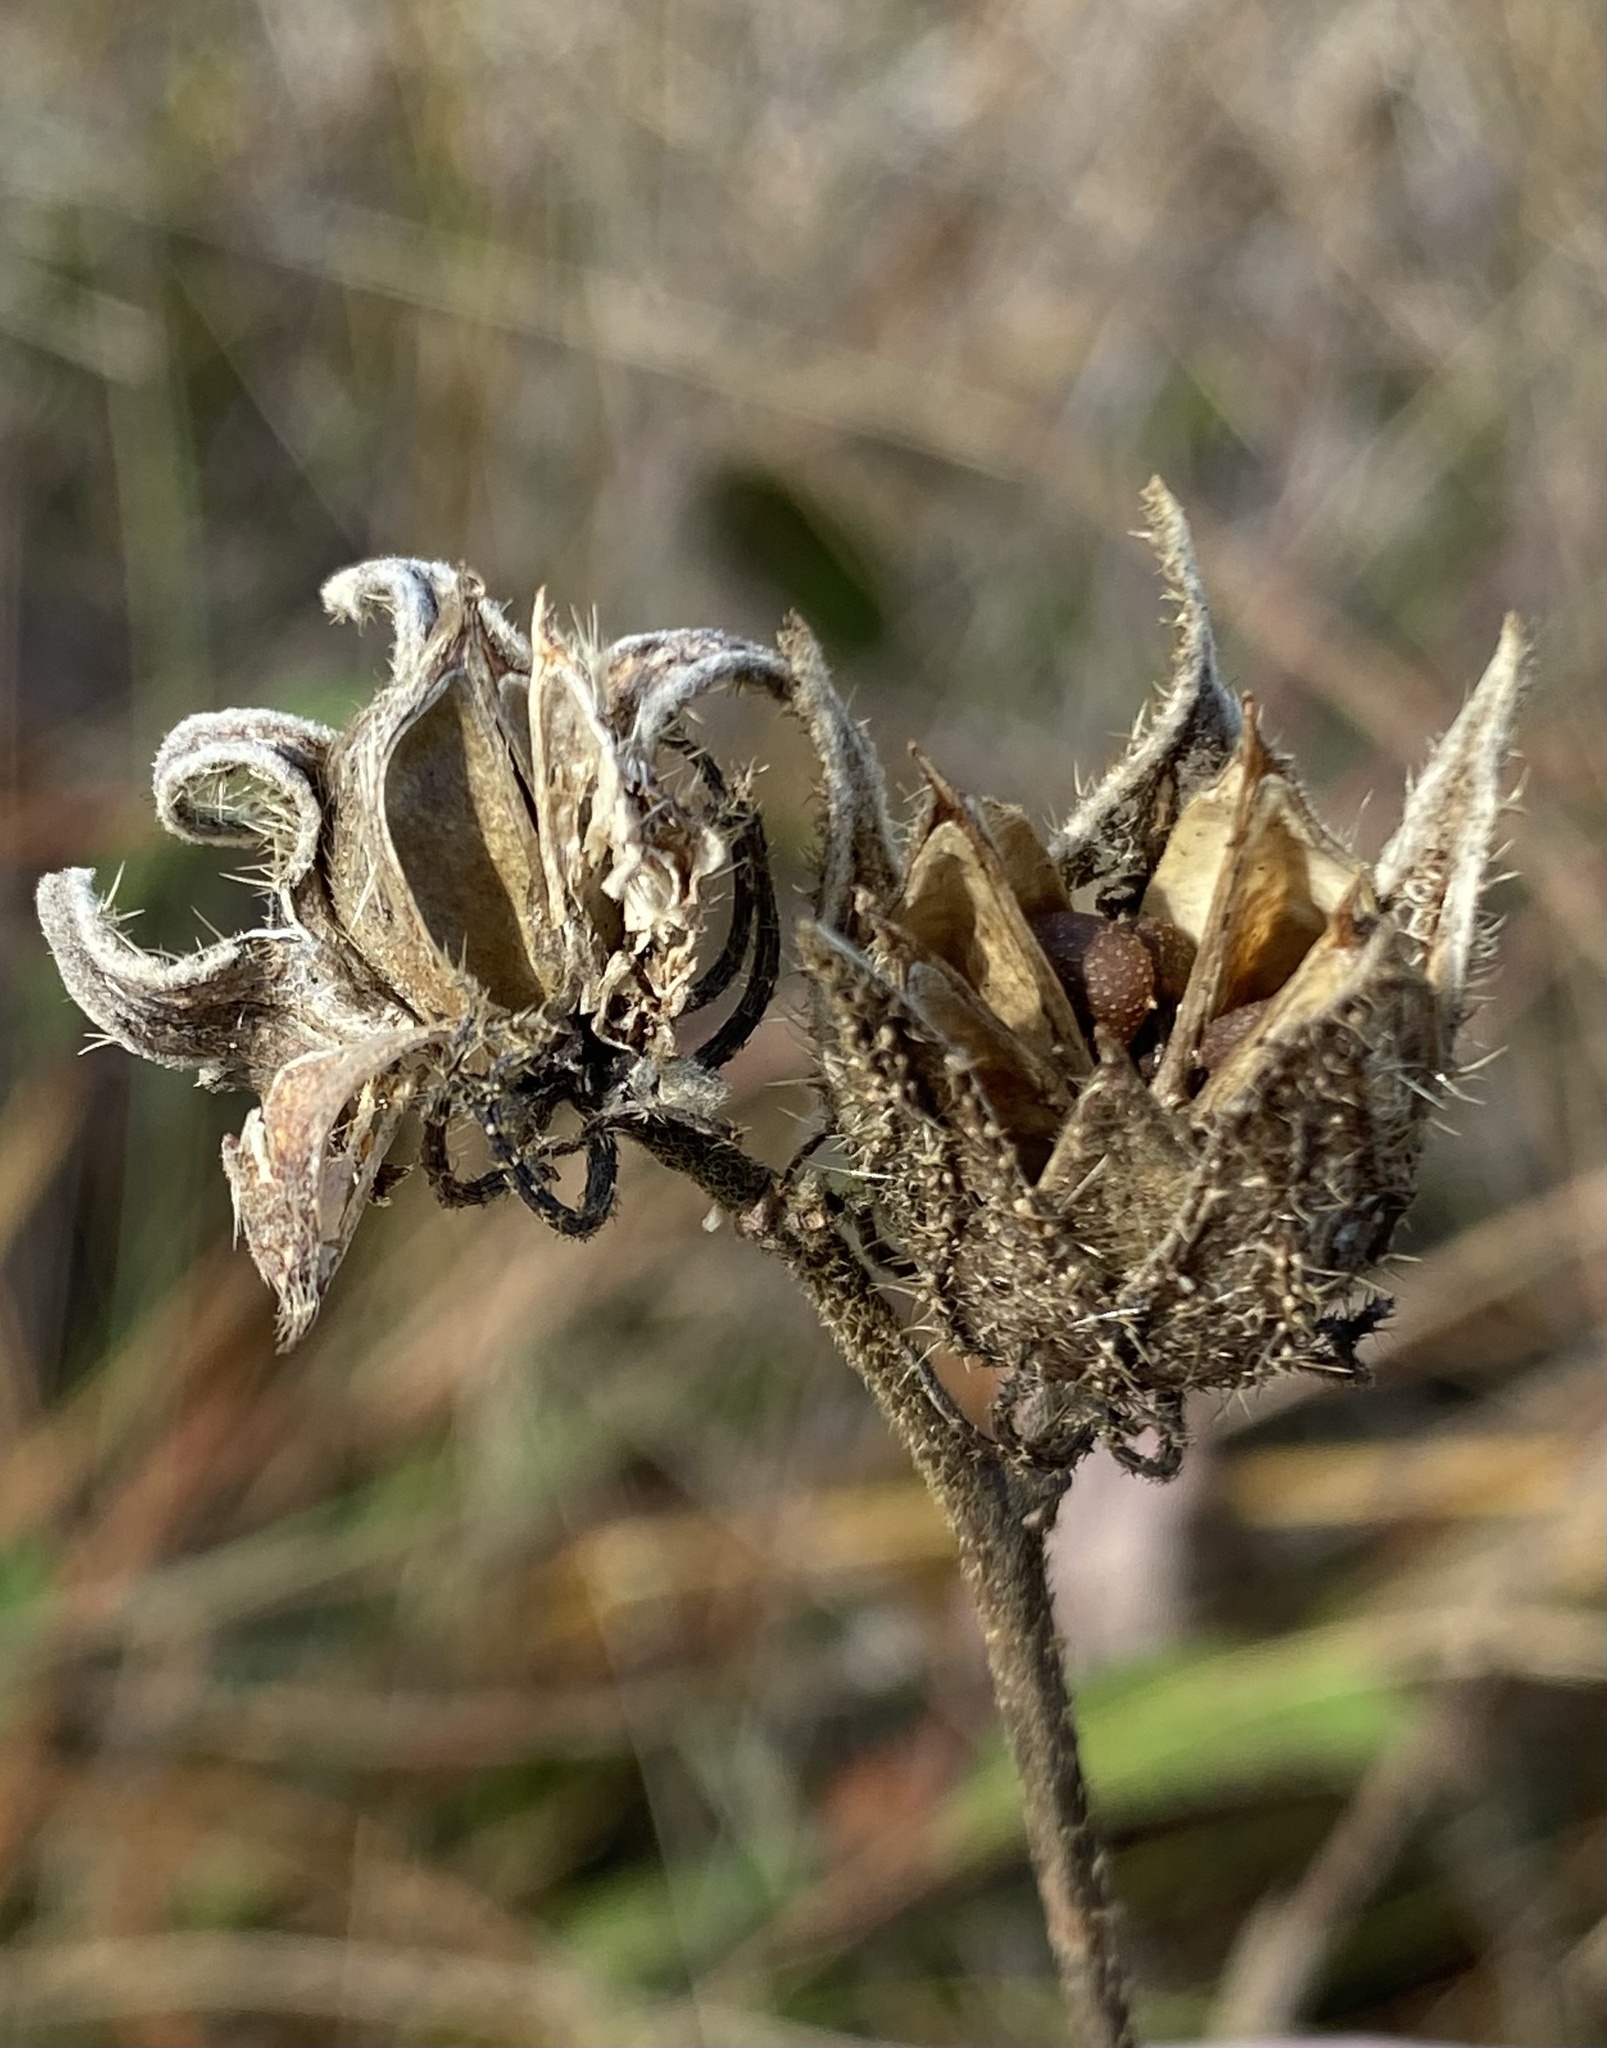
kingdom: Plantae
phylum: Tracheophyta
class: Magnoliopsida
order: Malvales
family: Malvaceae
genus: Hibiscus
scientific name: Hibiscus aculeatus
